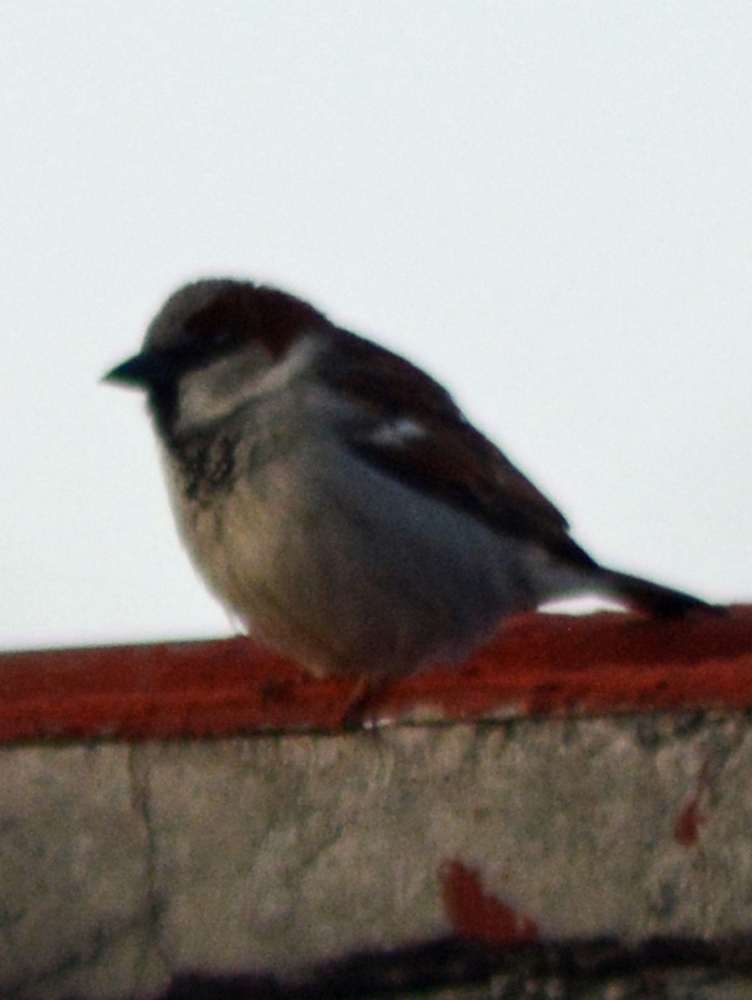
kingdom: Animalia
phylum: Chordata
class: Aves
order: Passeriformes
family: Passeridae
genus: Passer
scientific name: Passer domesticus
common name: House sparrow
